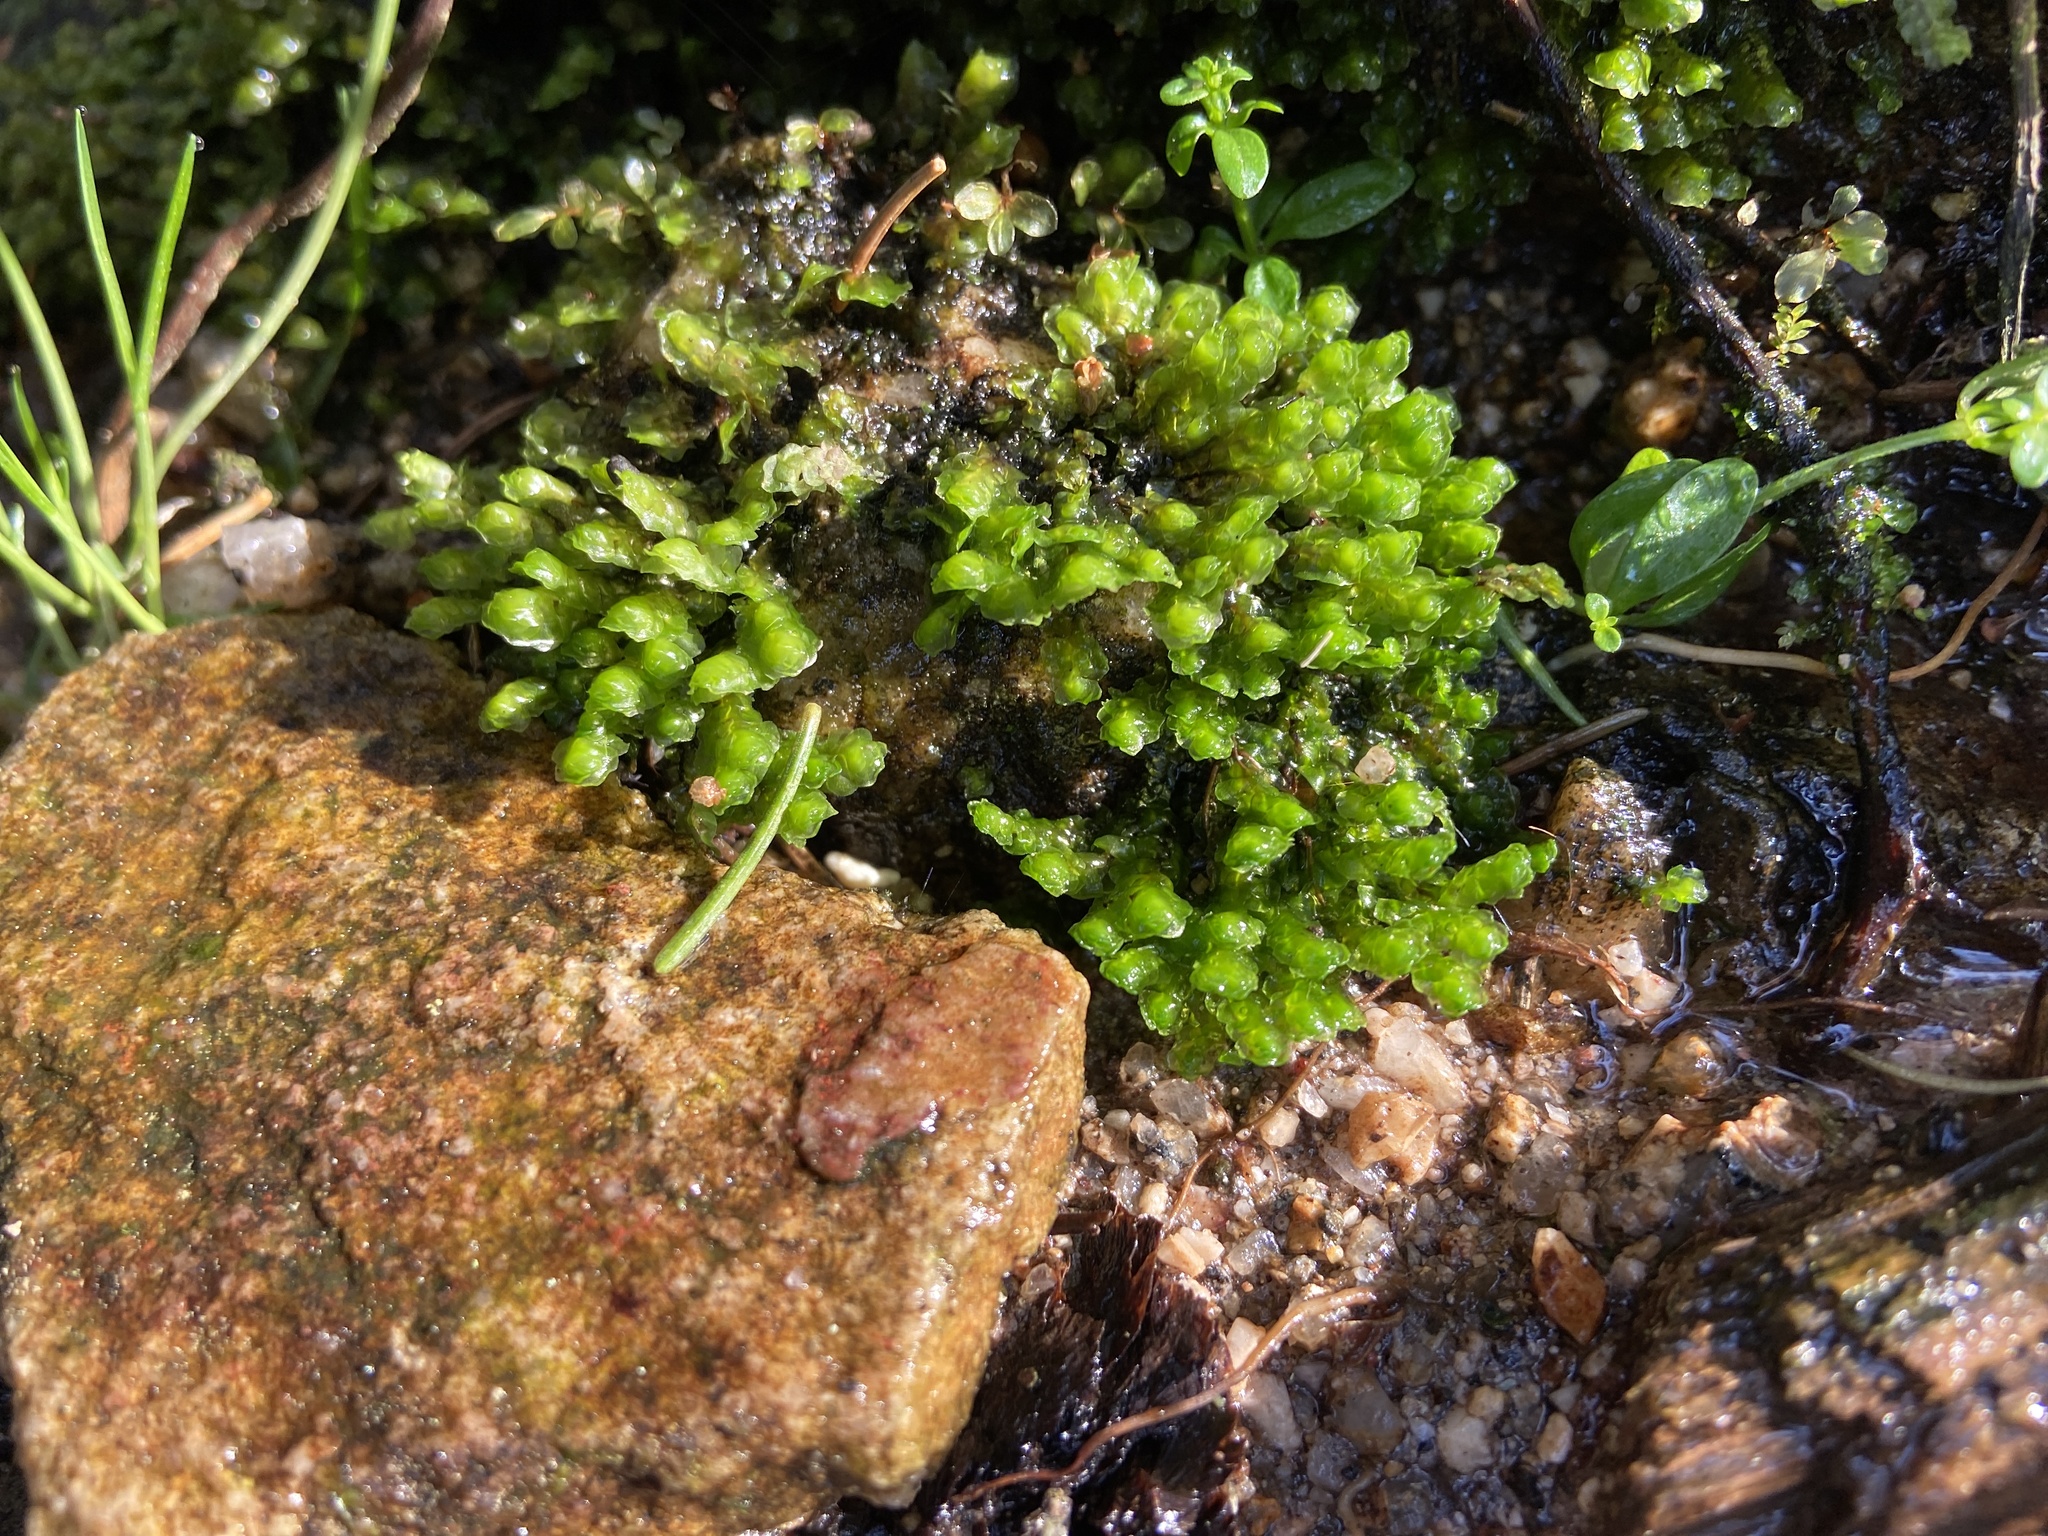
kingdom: Plantae
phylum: Marchantiophyta
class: Jungermanniopsida
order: Jungermanniales
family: Scapaniaceae
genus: Scapania
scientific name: Scapania undulata
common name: Water earwort
